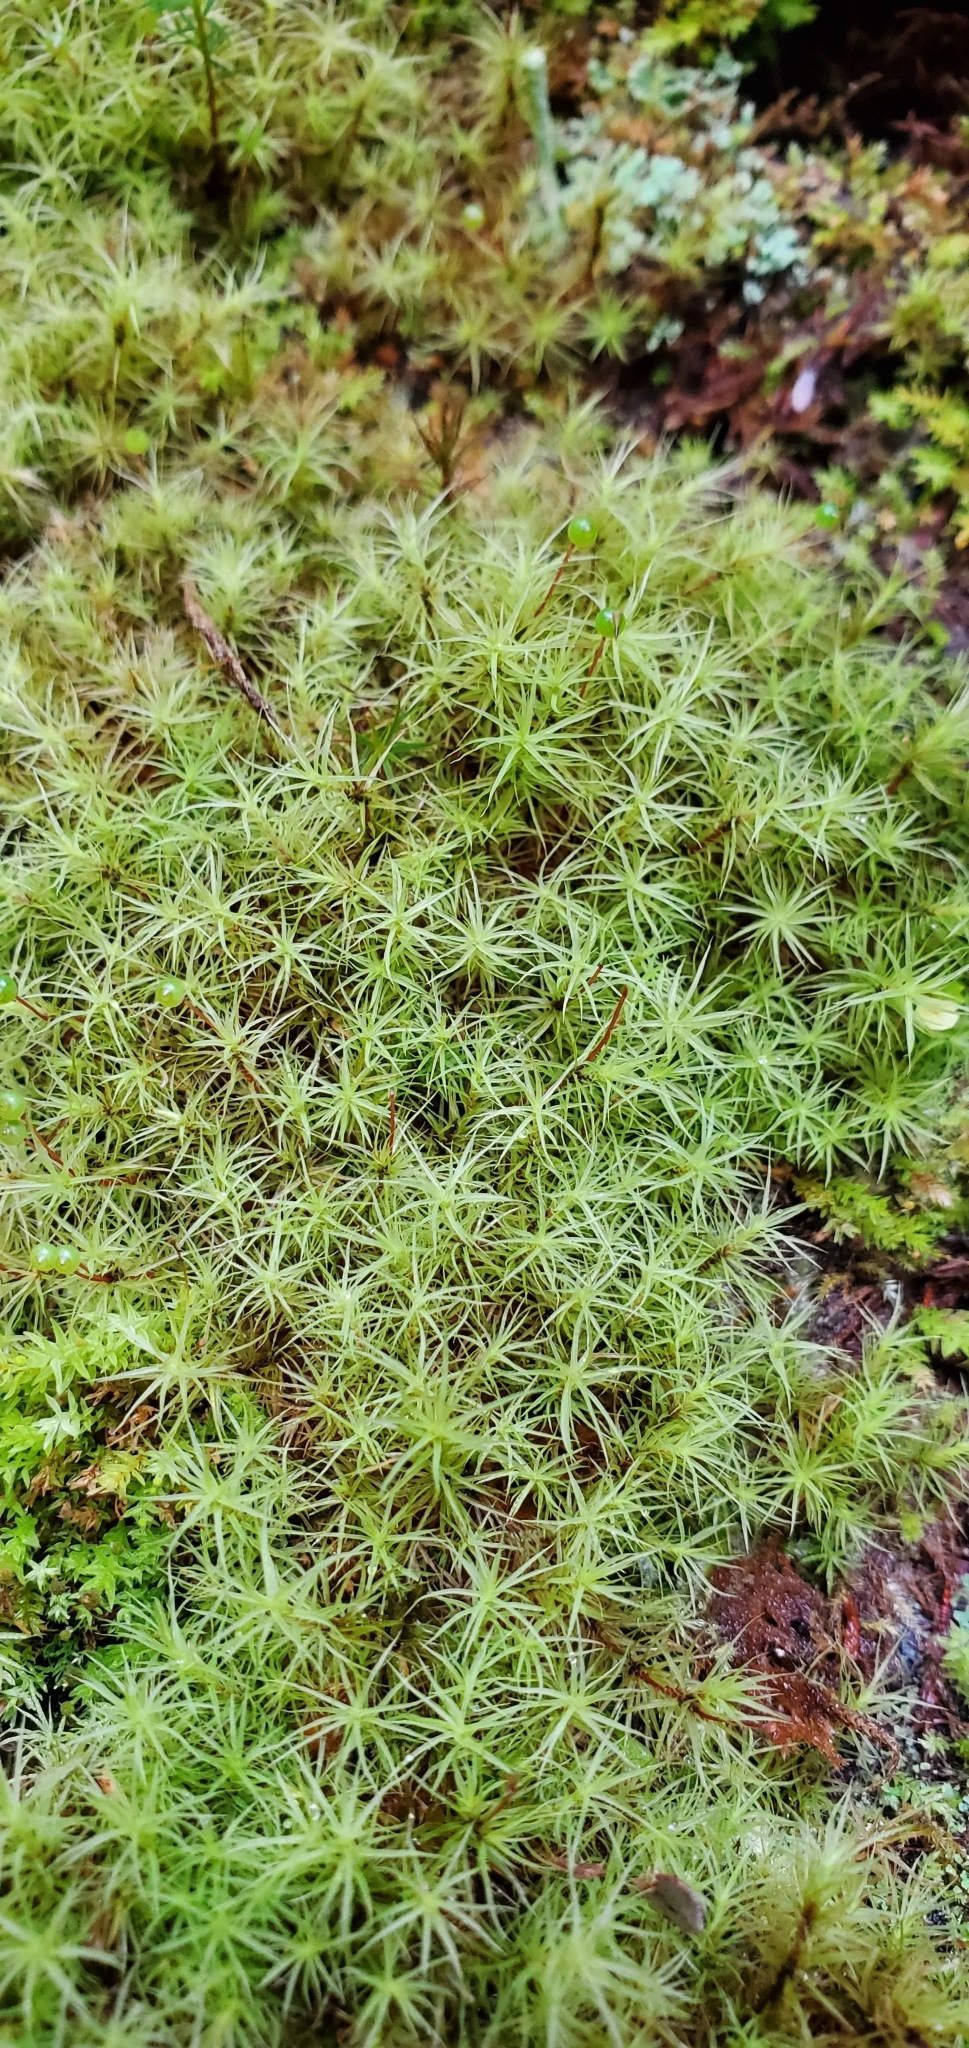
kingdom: Plantae
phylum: Bryophyta
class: Bryopsida
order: Bartramiales
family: Bartramiaceae
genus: Bartramia
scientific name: Bartramia ithyphylla
